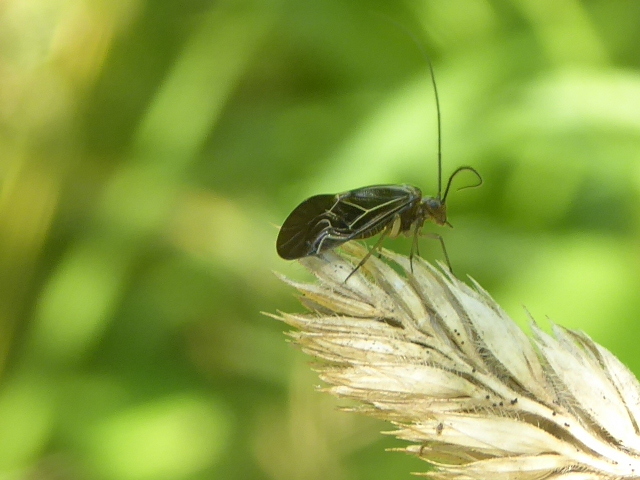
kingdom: Animalia
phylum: Arthropoda
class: Insecta
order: Psocodea
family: Psocidae
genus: Cerastipsocus
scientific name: Cerastipsocus venosus
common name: Tree cattle
